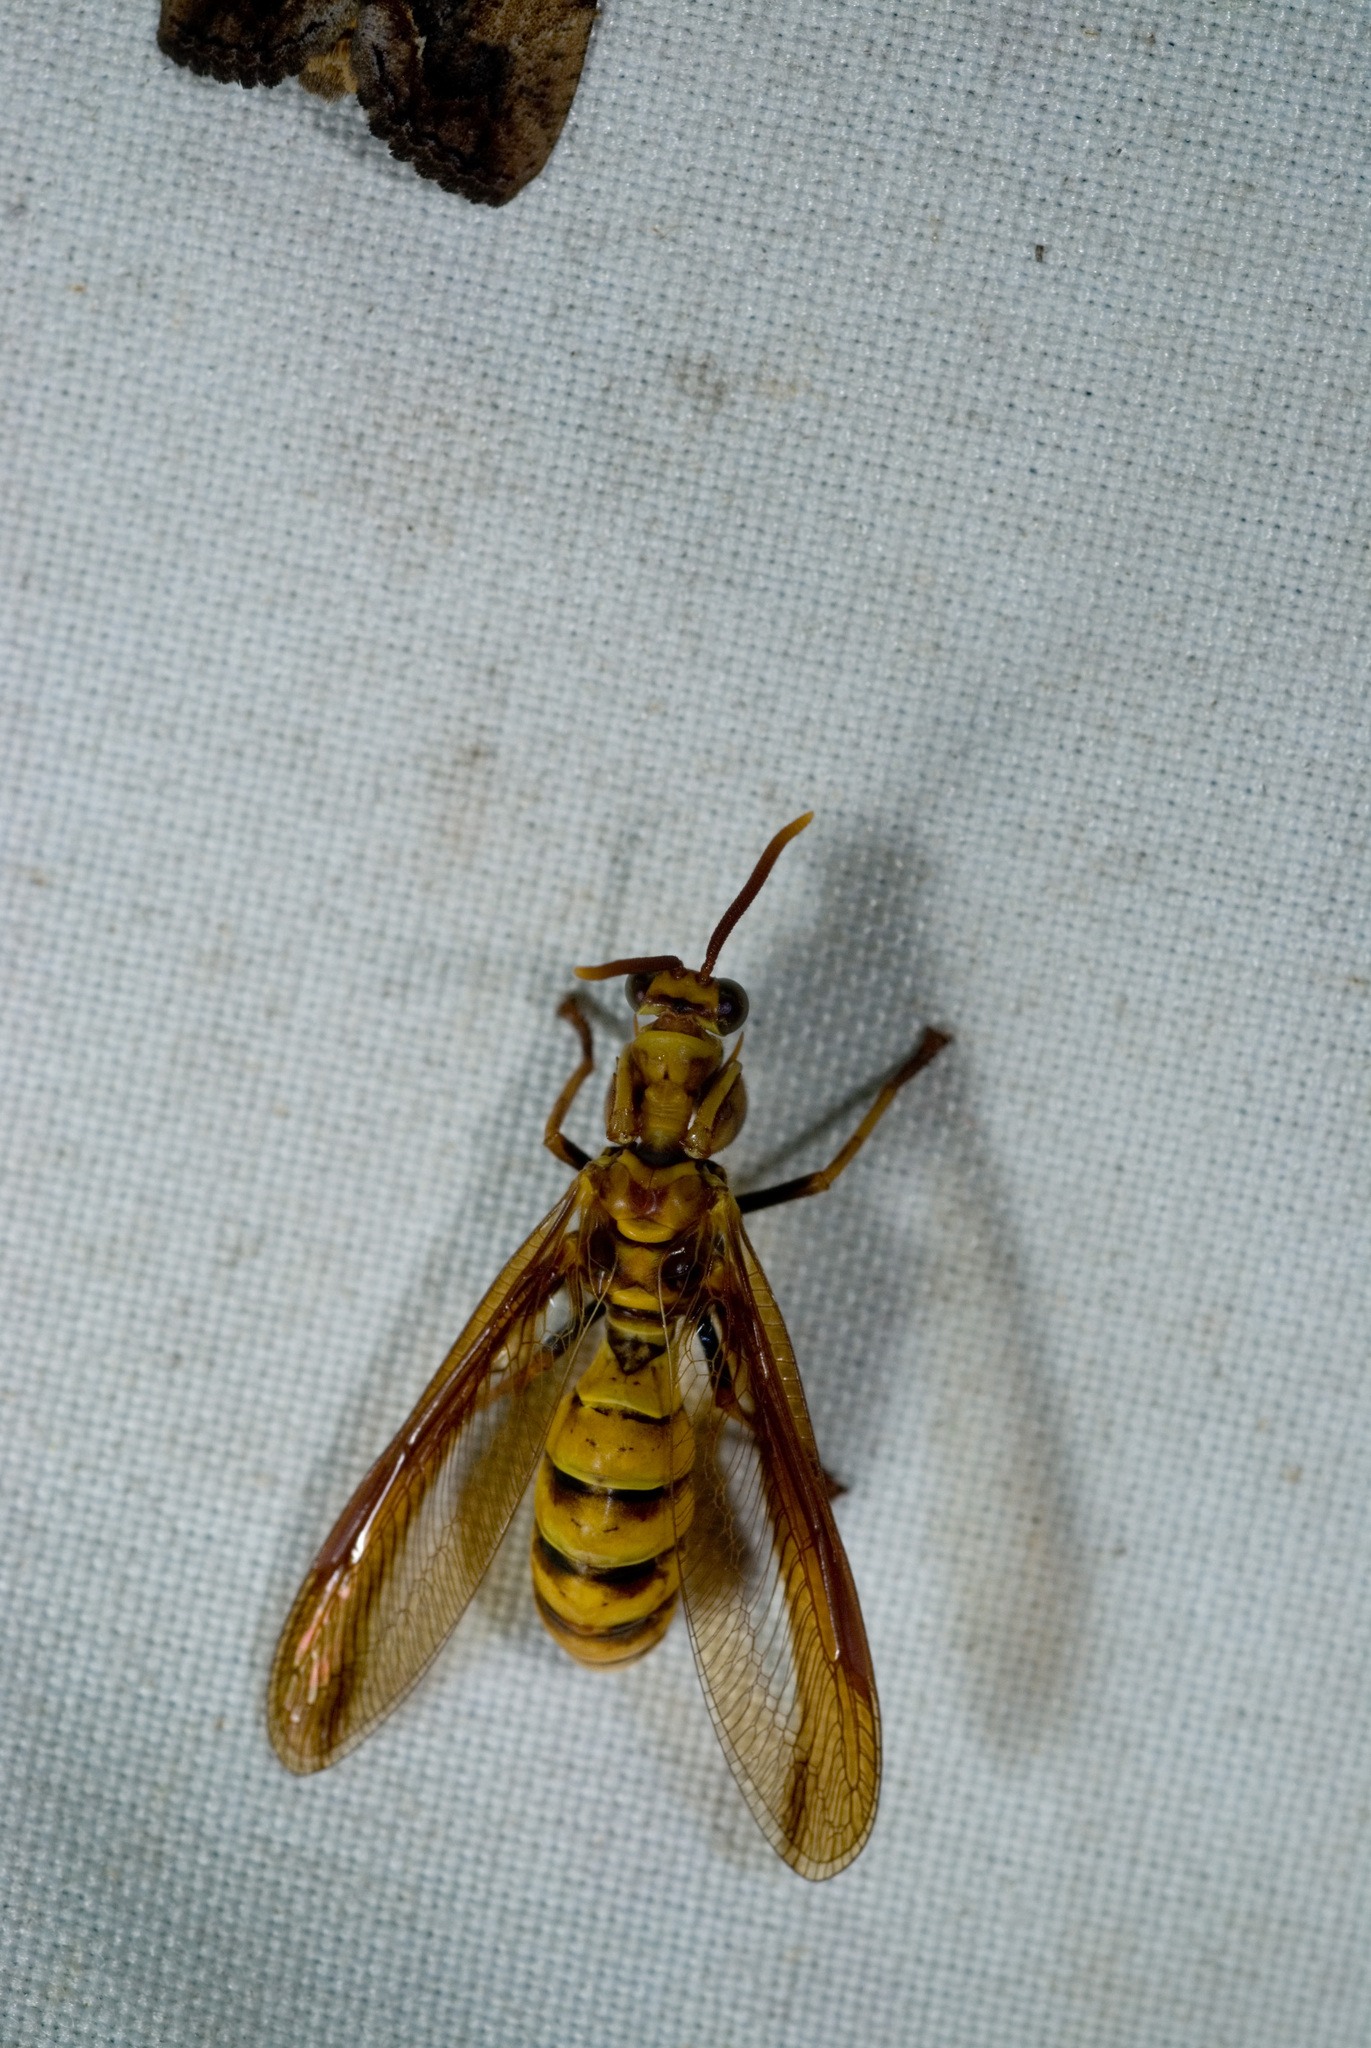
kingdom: Animalia
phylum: Arthropoda
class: Insecta
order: Neuroptera
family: Mantispidae
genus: Euclimacia
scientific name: Euclimacia fusca
